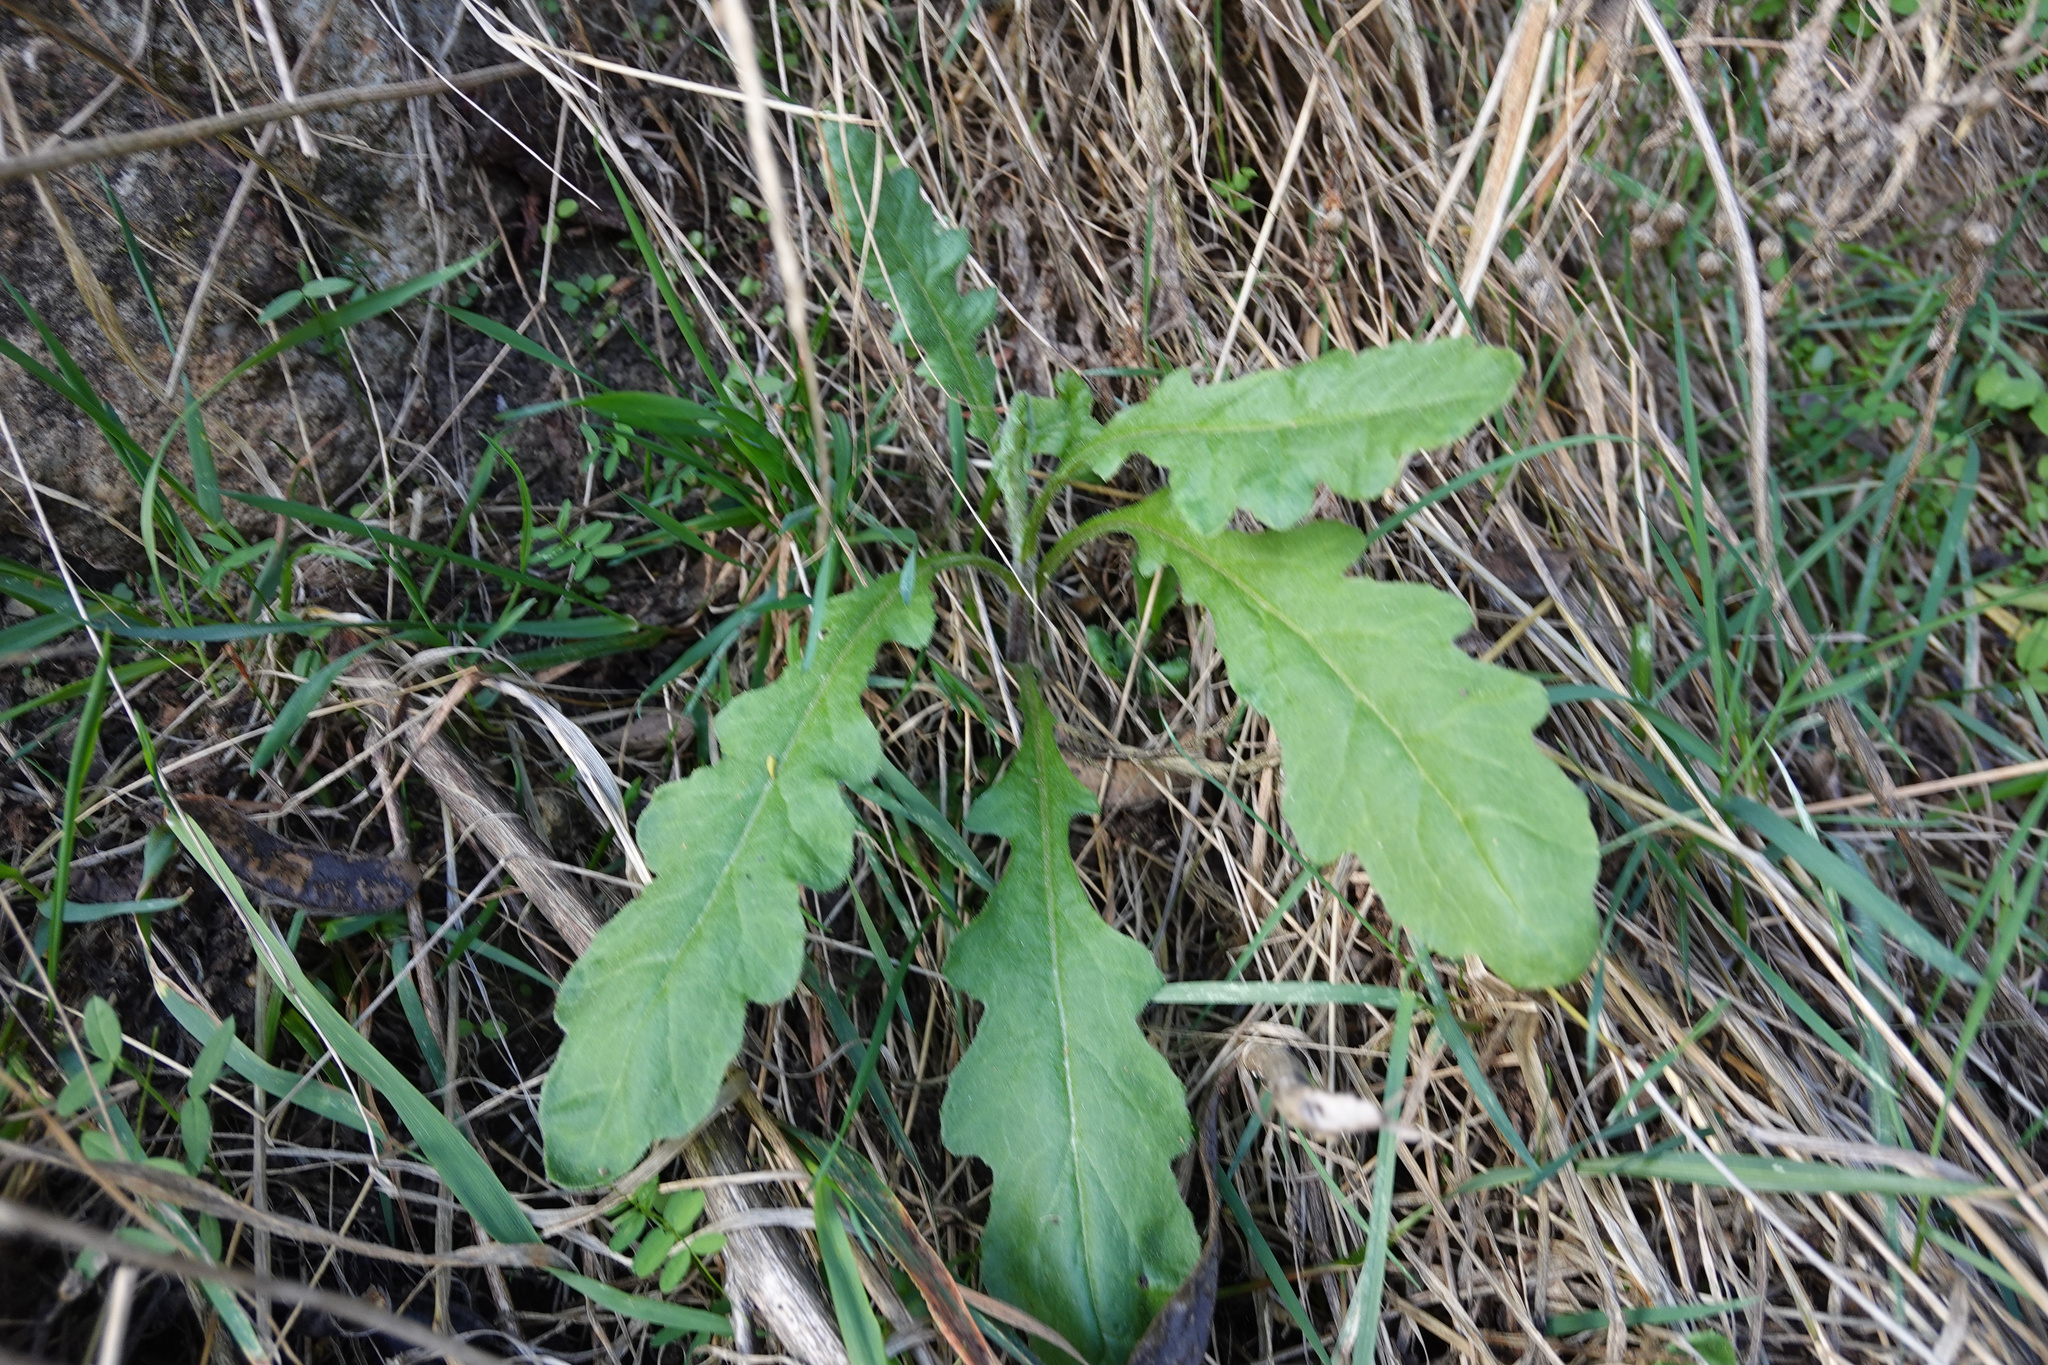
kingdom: Plantae
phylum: Tracheophyta
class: Magnoliopsida
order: Asterales
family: Asteraceae
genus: Senecio
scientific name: Senecio glomeratus
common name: Cutleaf burnweed
